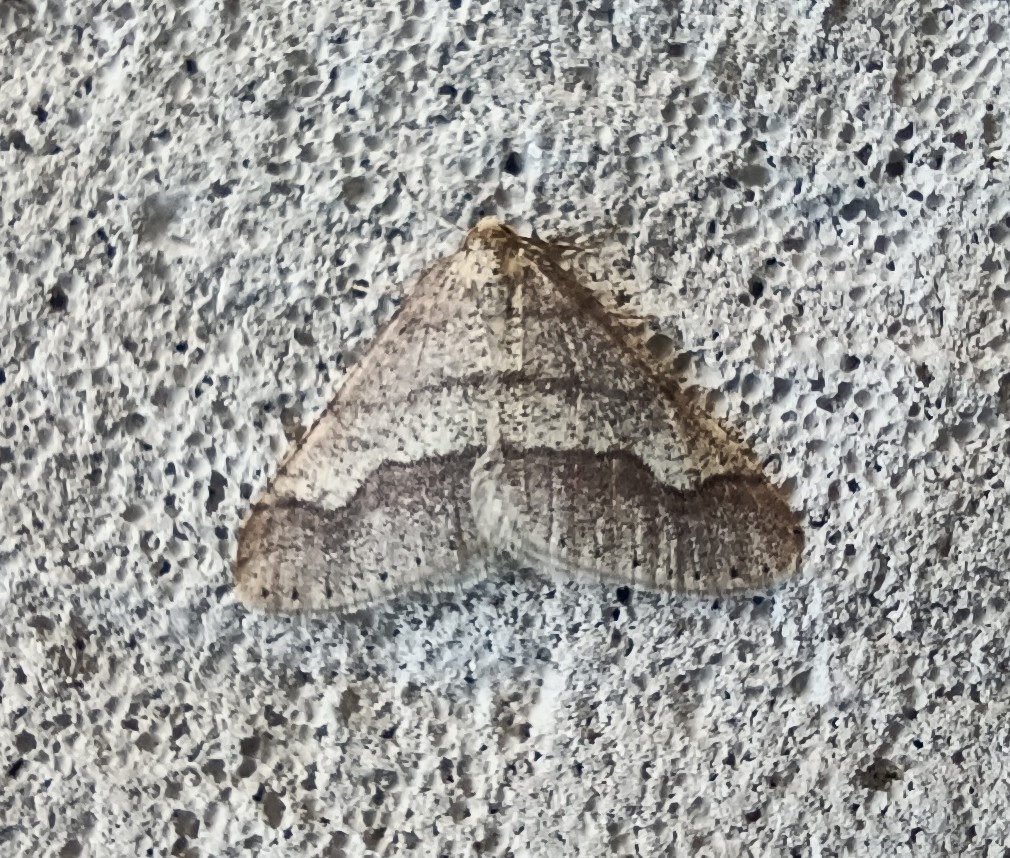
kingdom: Animalia
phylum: Arthropoda
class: Insecta
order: Lepidoptera
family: Geometridae
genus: Agriopis
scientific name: Agriopis marginaria
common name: Dotted border
